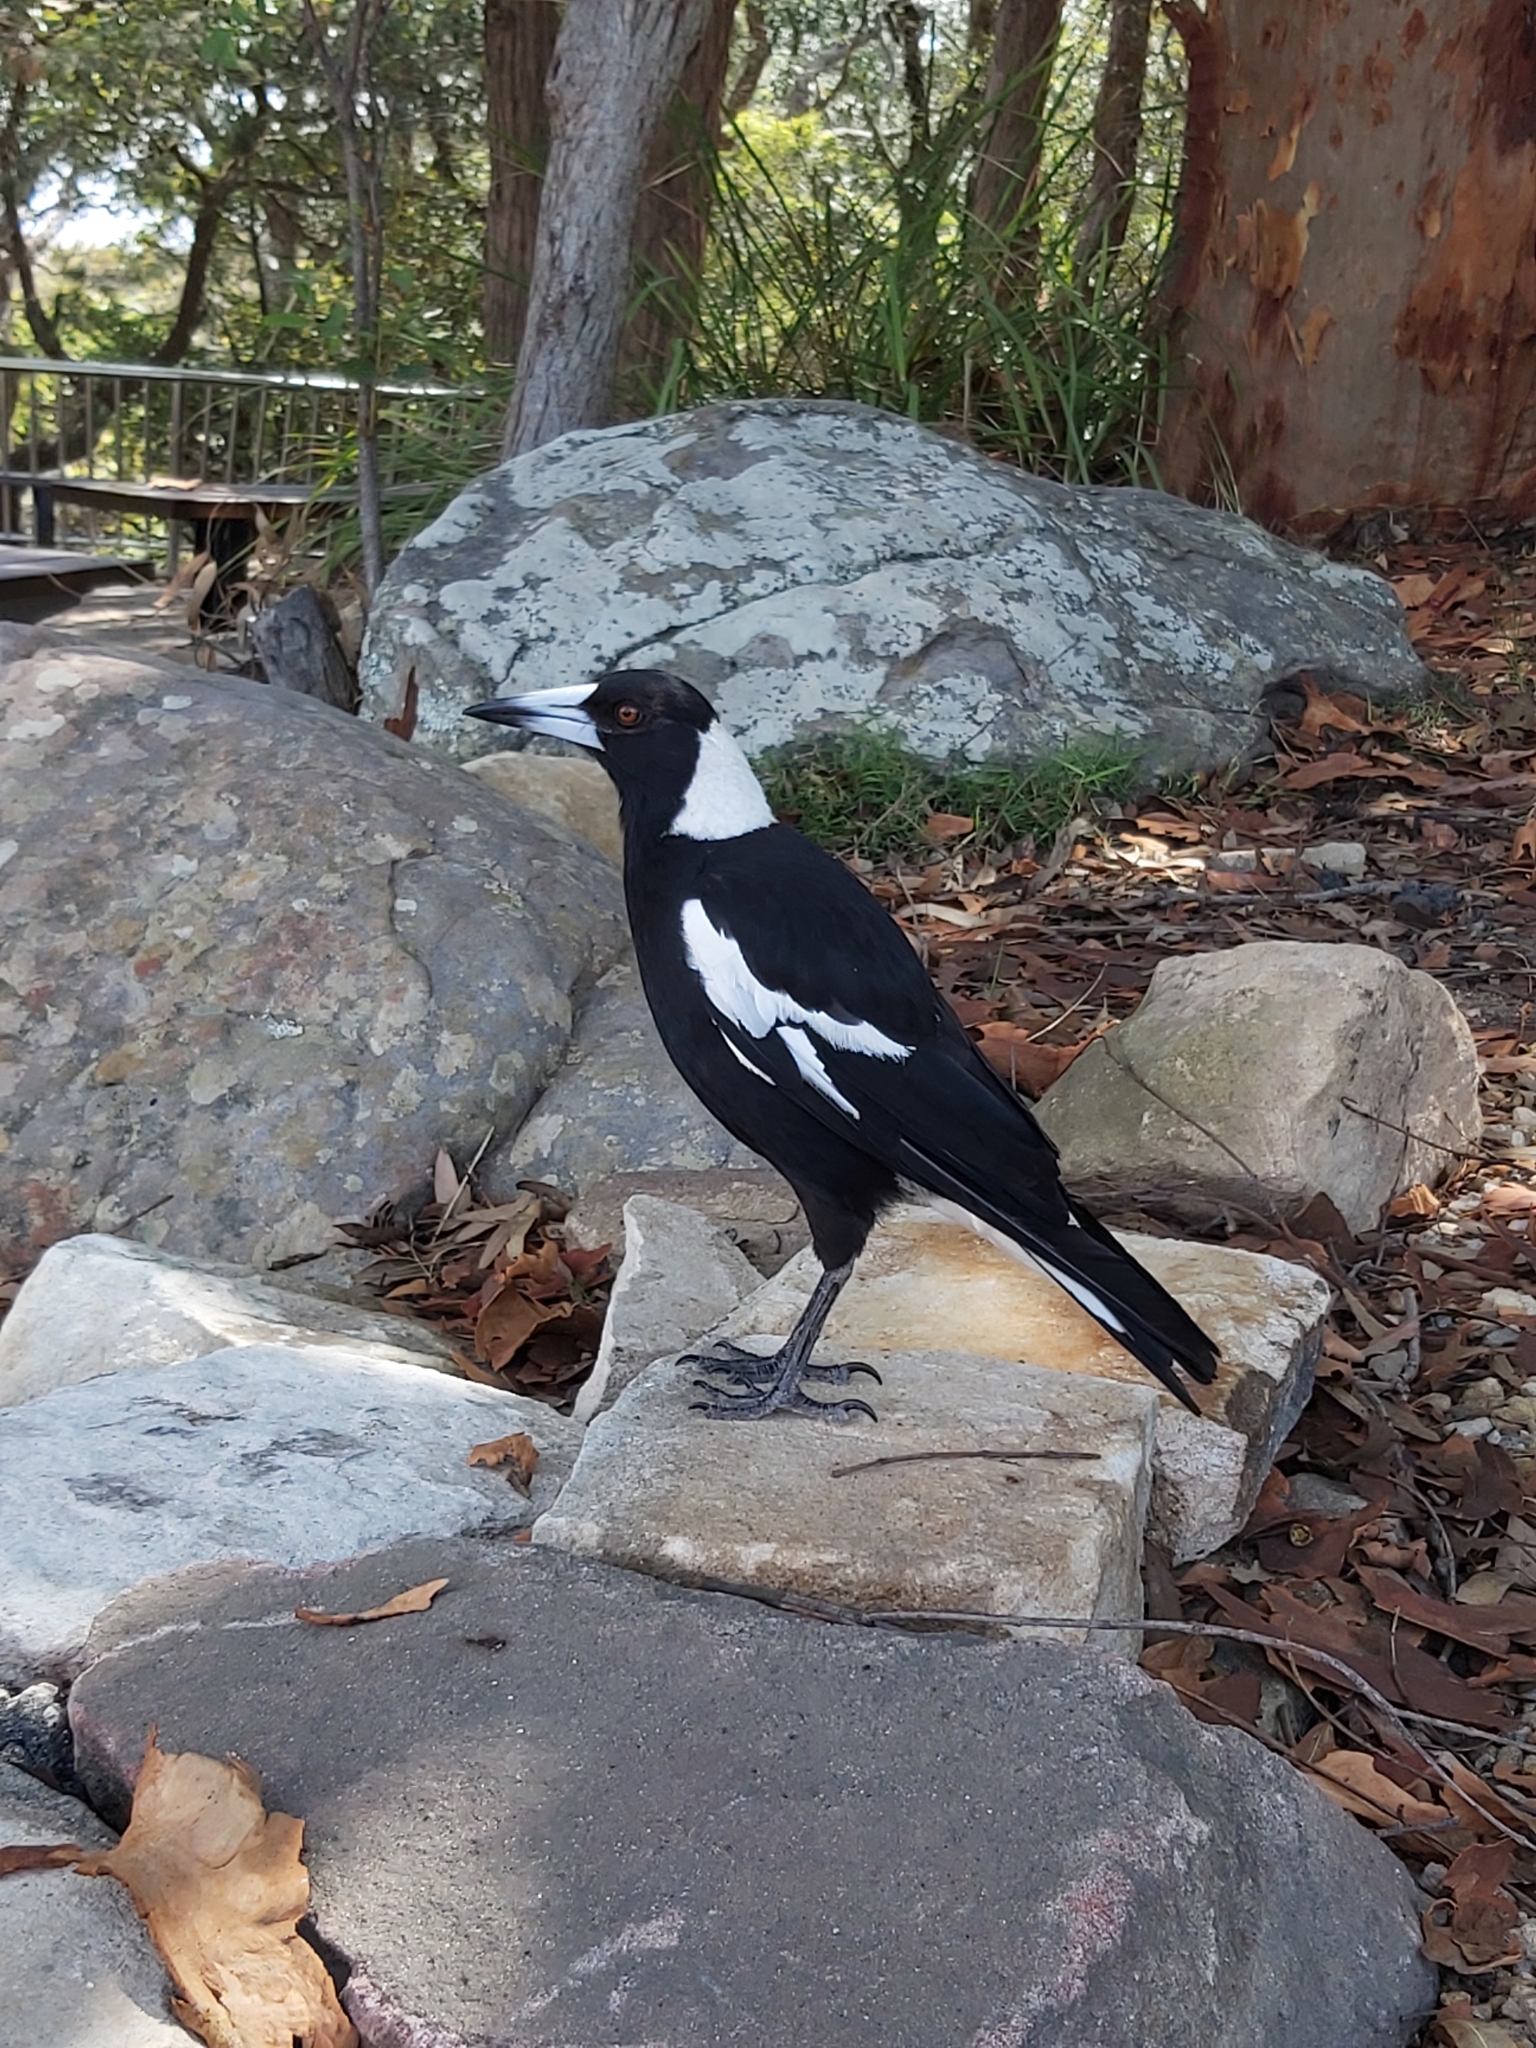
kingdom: Animalia
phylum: Chordata
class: Aves
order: Passeriformes
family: Cracticidae
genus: Gymnorhina
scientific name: Gymnorhina tibicen
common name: Australian magpie
